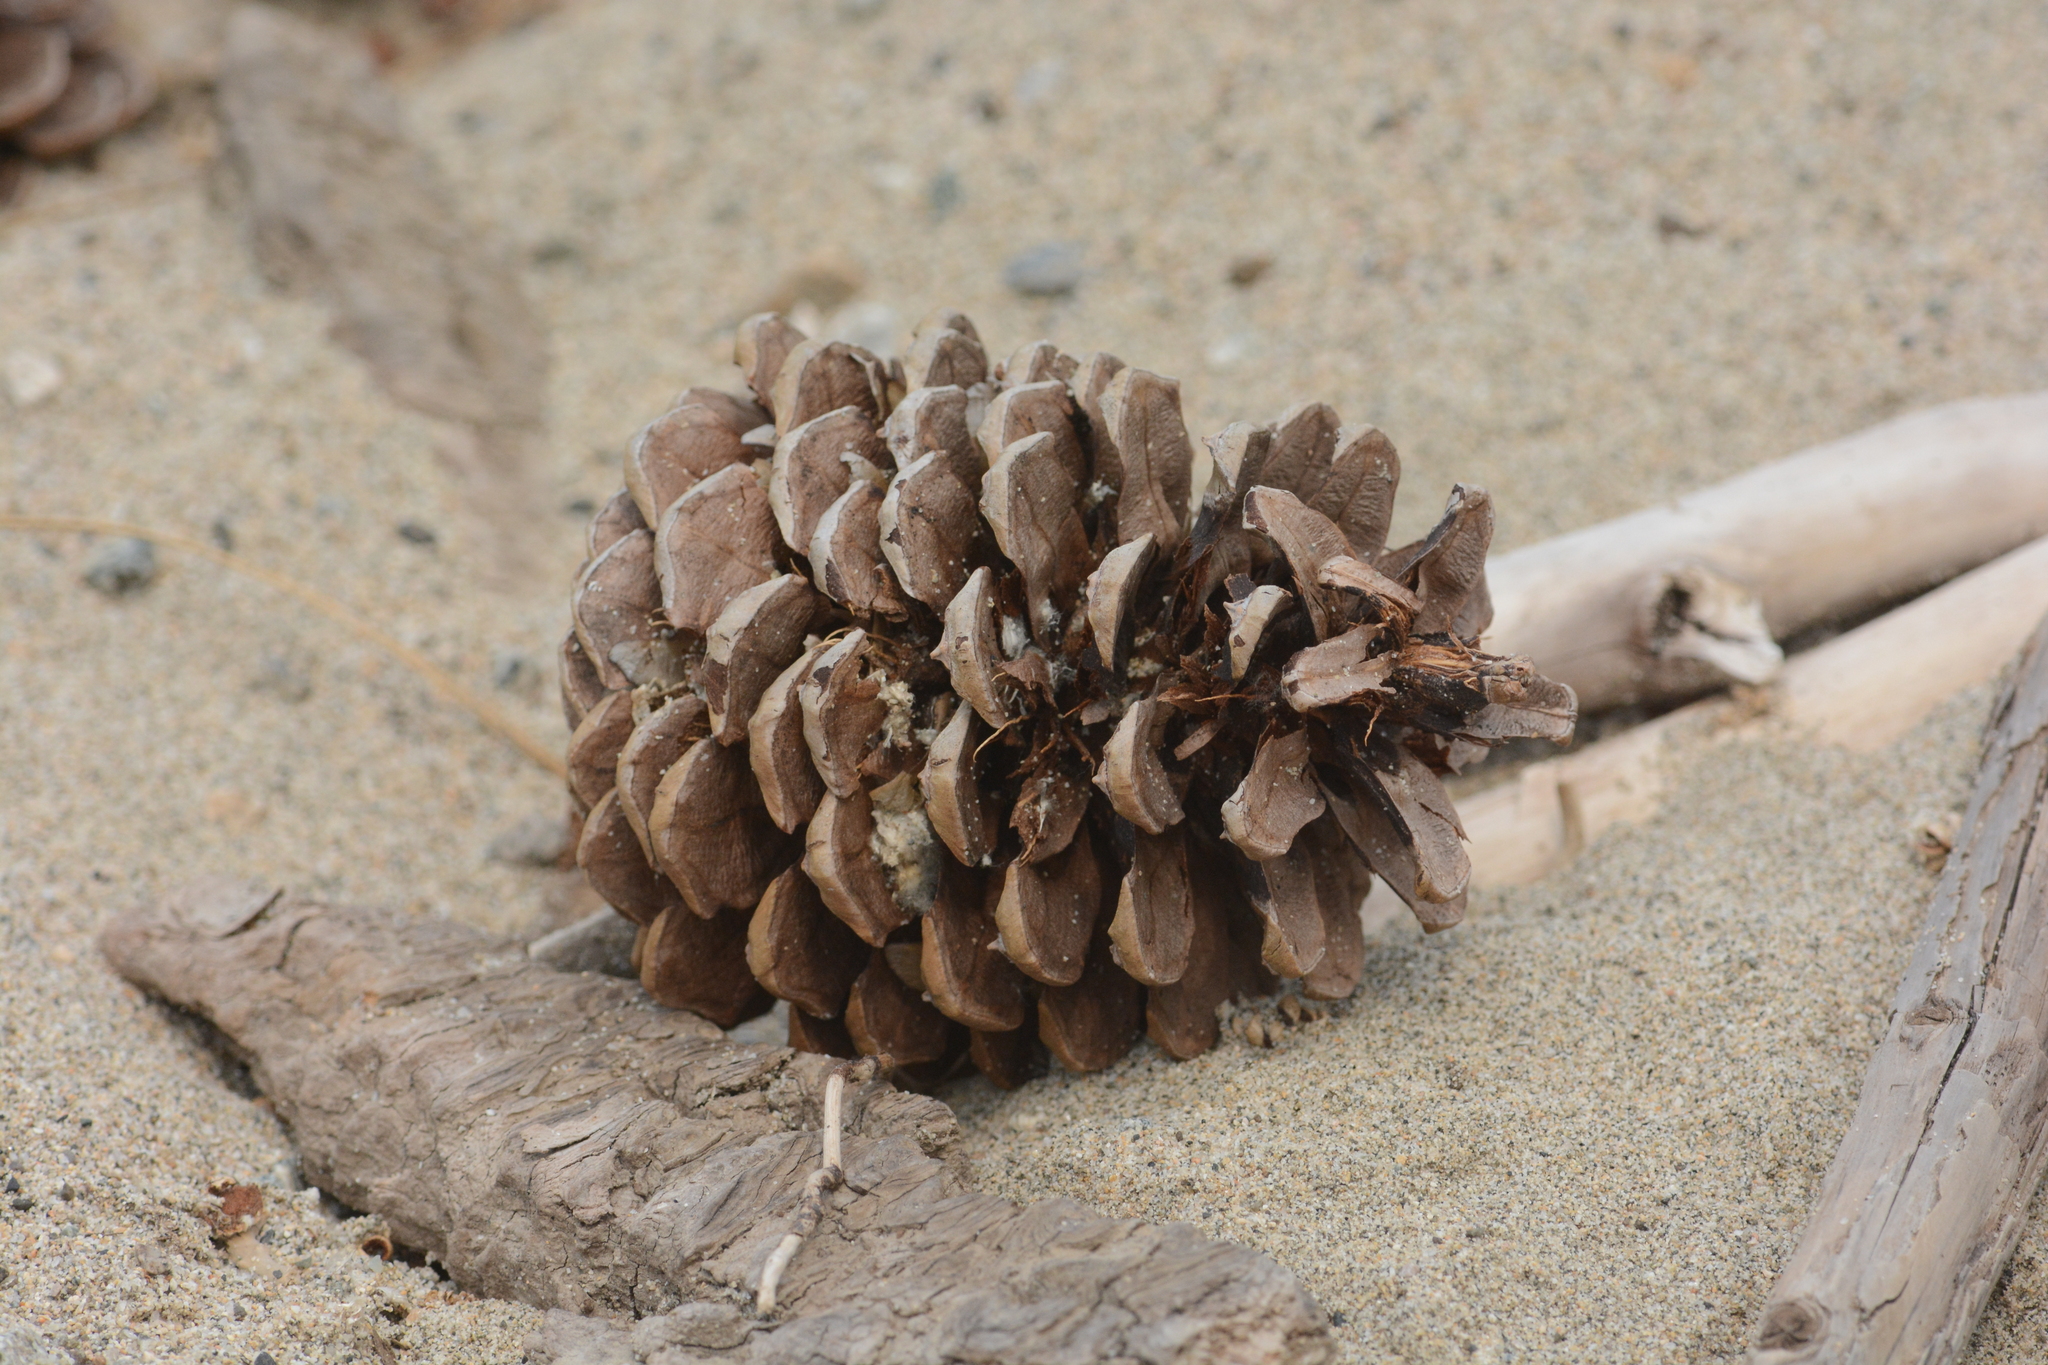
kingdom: Plantae
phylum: Tracheophyta
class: Pinopsida
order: Pinales
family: Pinaceae
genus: Pinus
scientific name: Pinus ponderosa
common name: Western yellow-pine
